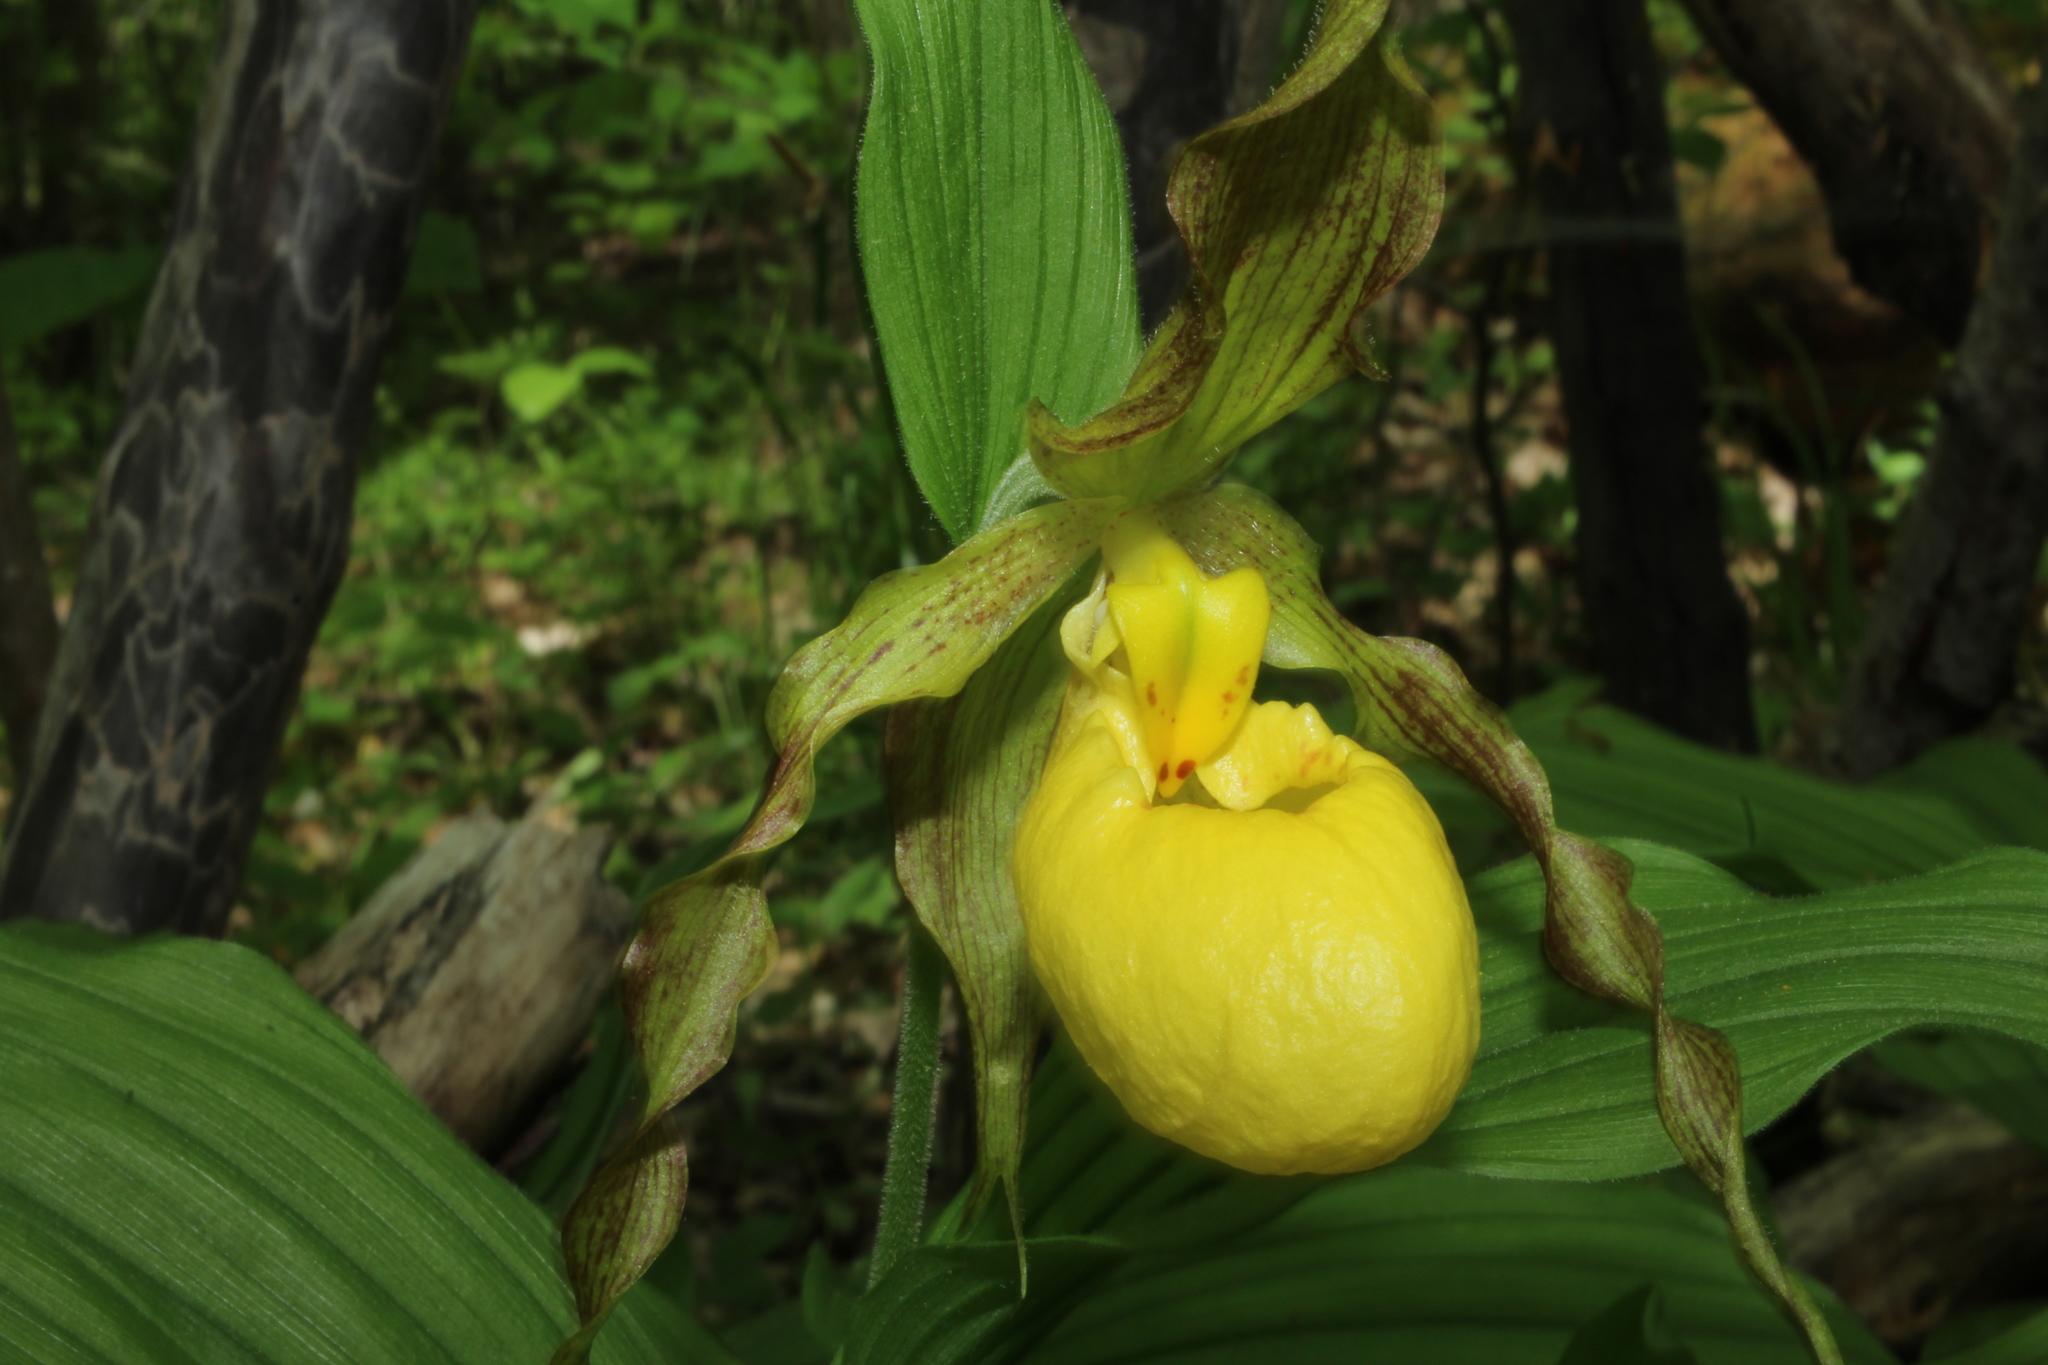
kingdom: Plantae
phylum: Tracheophyta
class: Liliopsida
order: Asparagales
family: Orchidaceae
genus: Cypripedium
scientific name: Cypripedium parviflorum
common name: American yellow lady's-slipper
